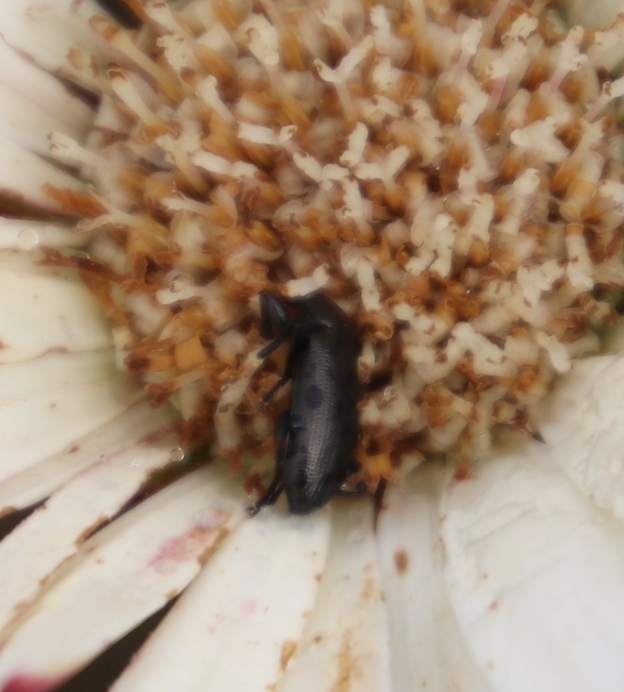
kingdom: Plantae
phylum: Tracheophyta
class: Magnoliopsida
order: Asterales
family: Asteraceae
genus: Gerbera
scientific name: Gerbera tomentosa
